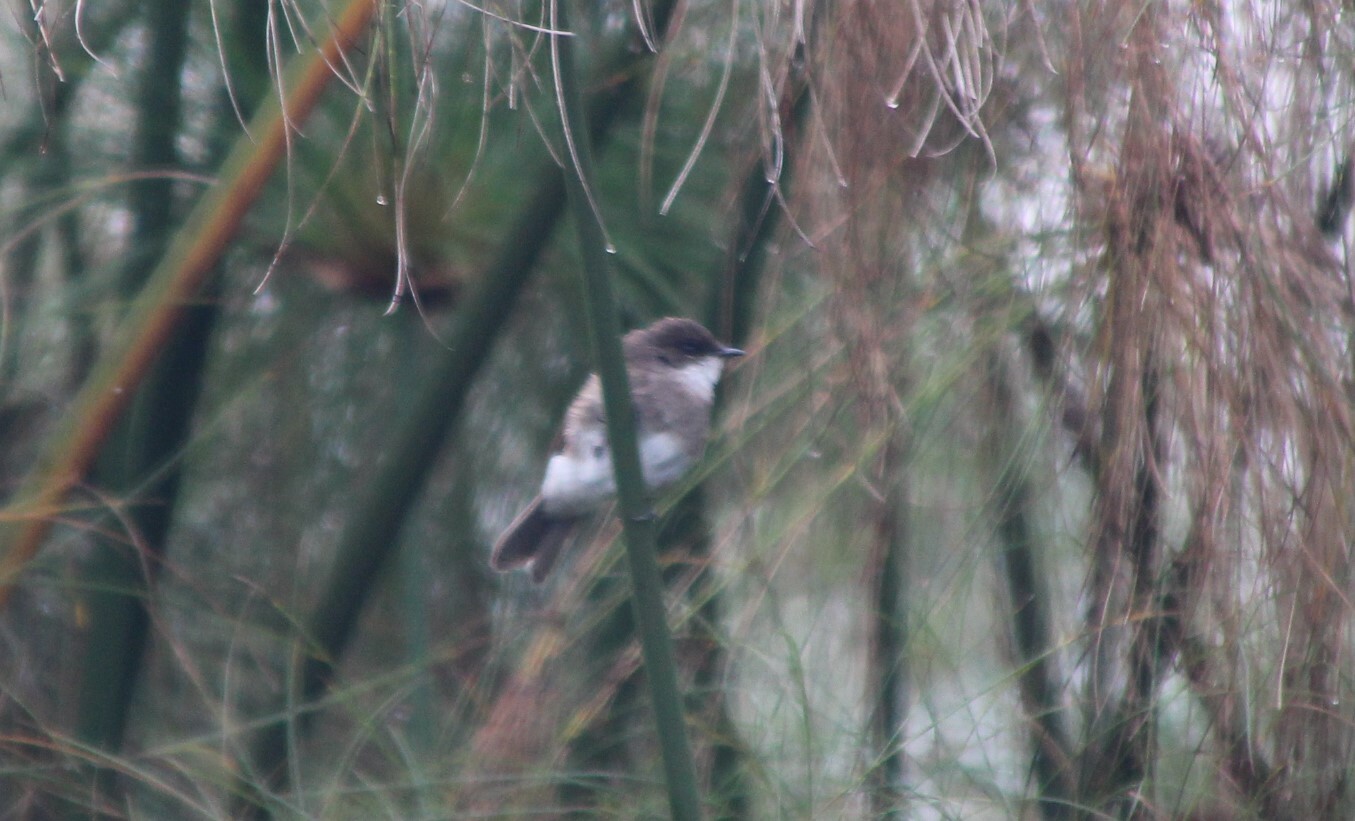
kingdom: Animalia
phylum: Chordata
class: Aves
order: Passeriformes
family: Muscicapidae
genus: Muscicapa
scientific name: Muscicapa aquatica
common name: Swamp flycatcher
